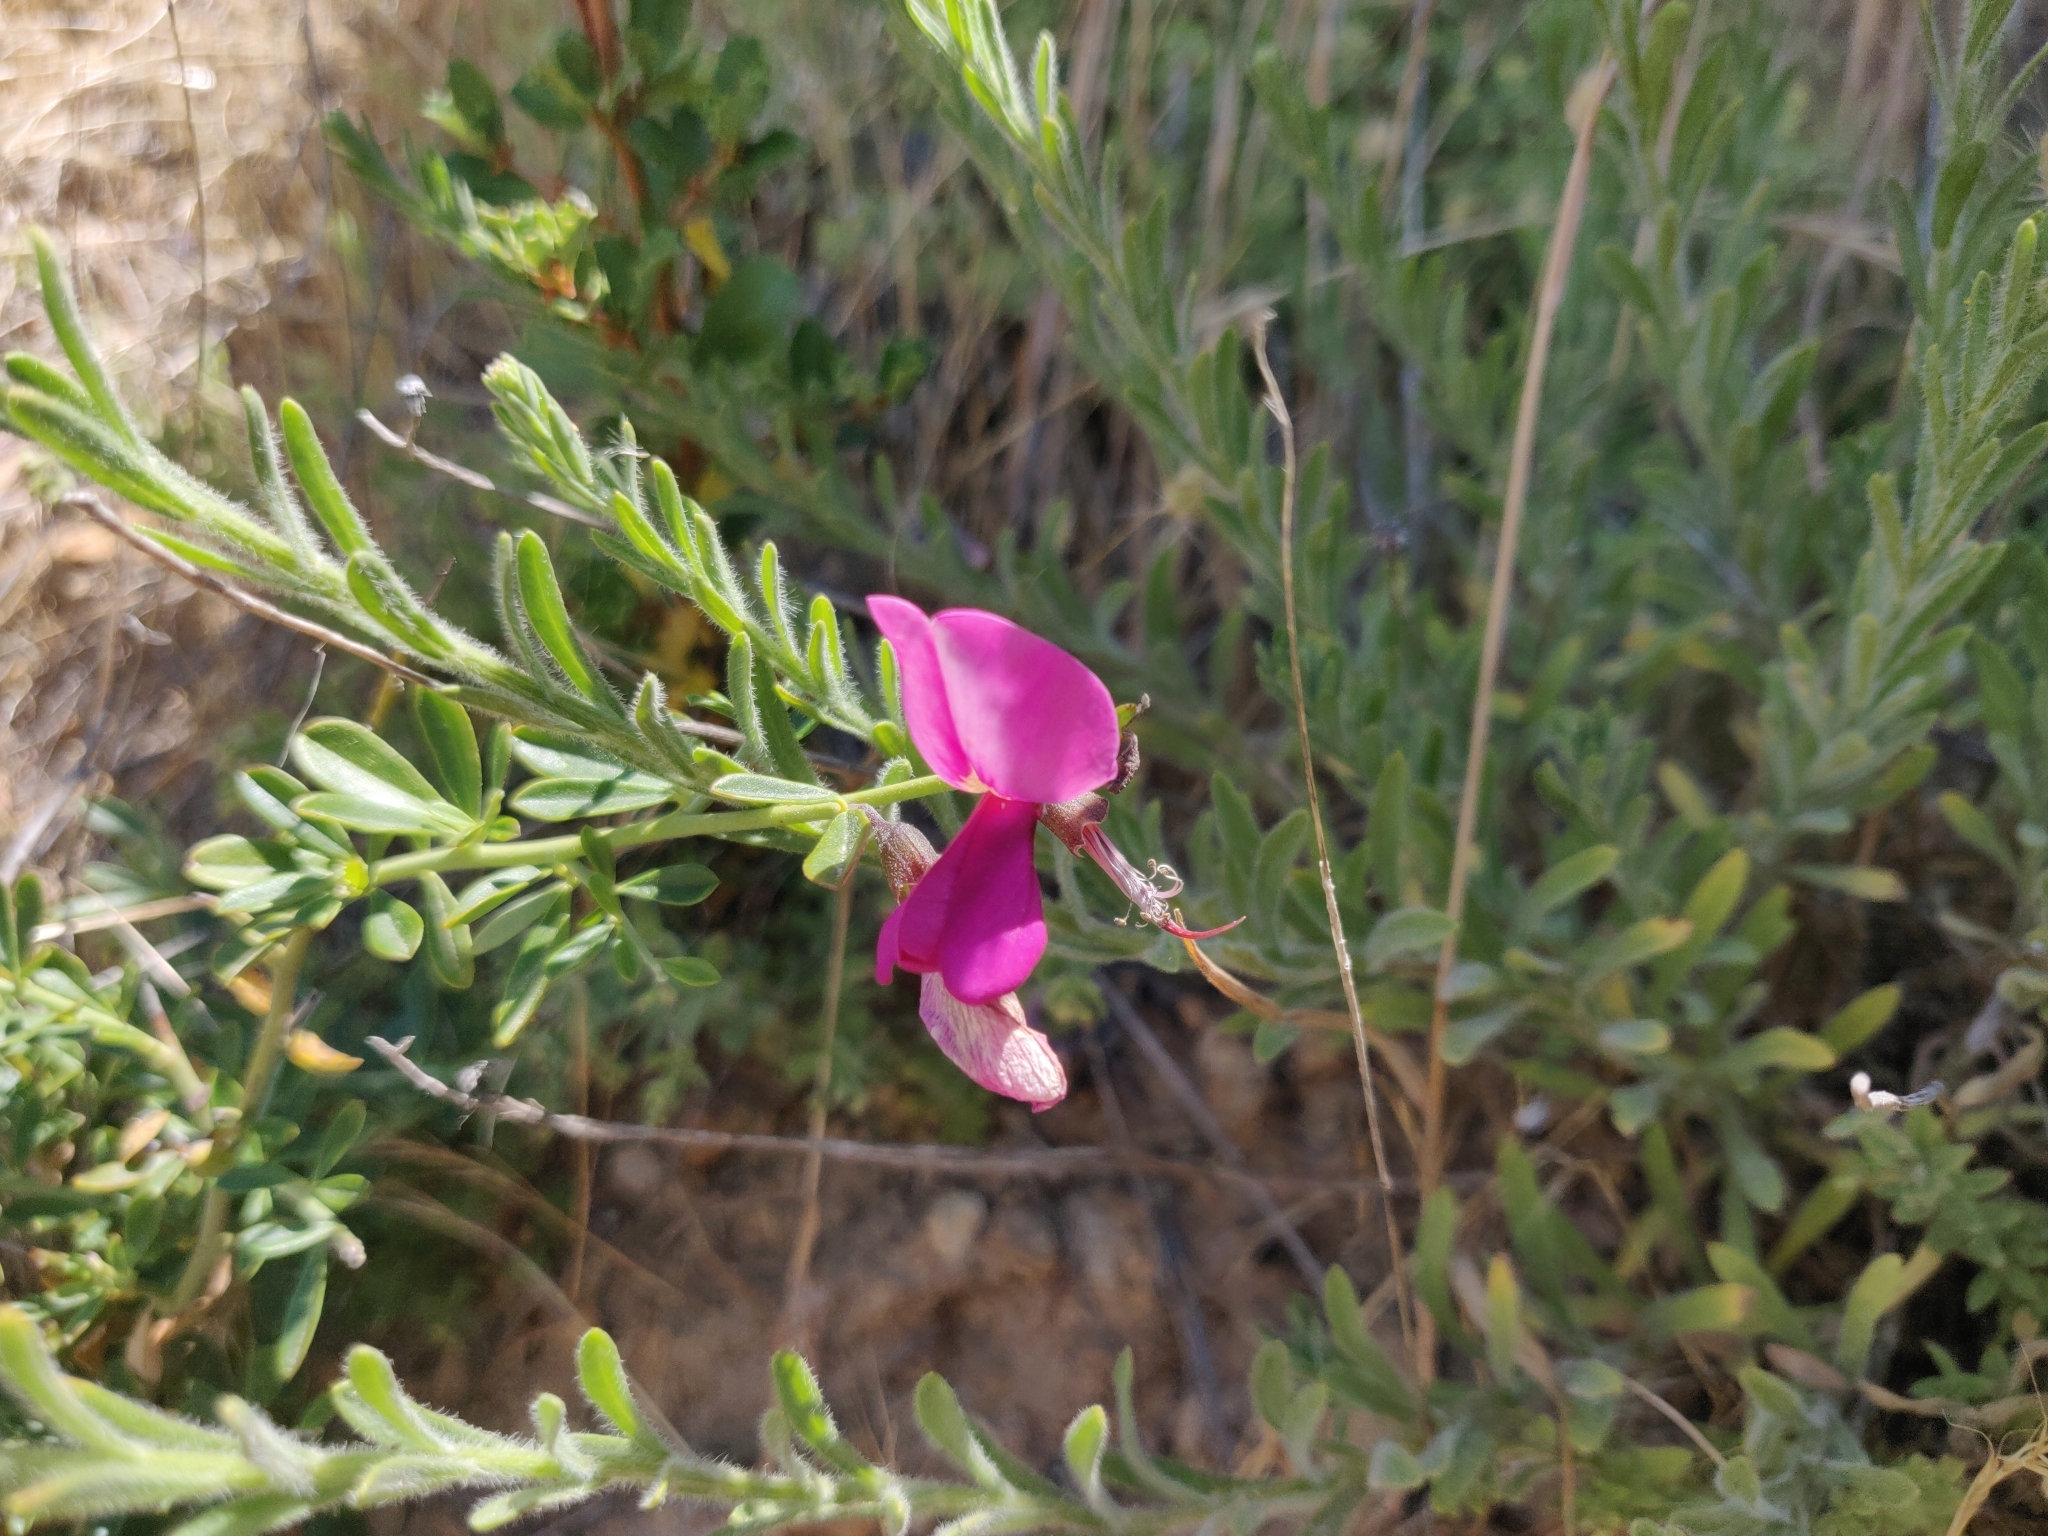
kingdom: Plantae
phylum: Tracheophyta
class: Magnoliopsida
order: Fabales
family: Fabaceae
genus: Pickeringia
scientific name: Pickeringia montana
